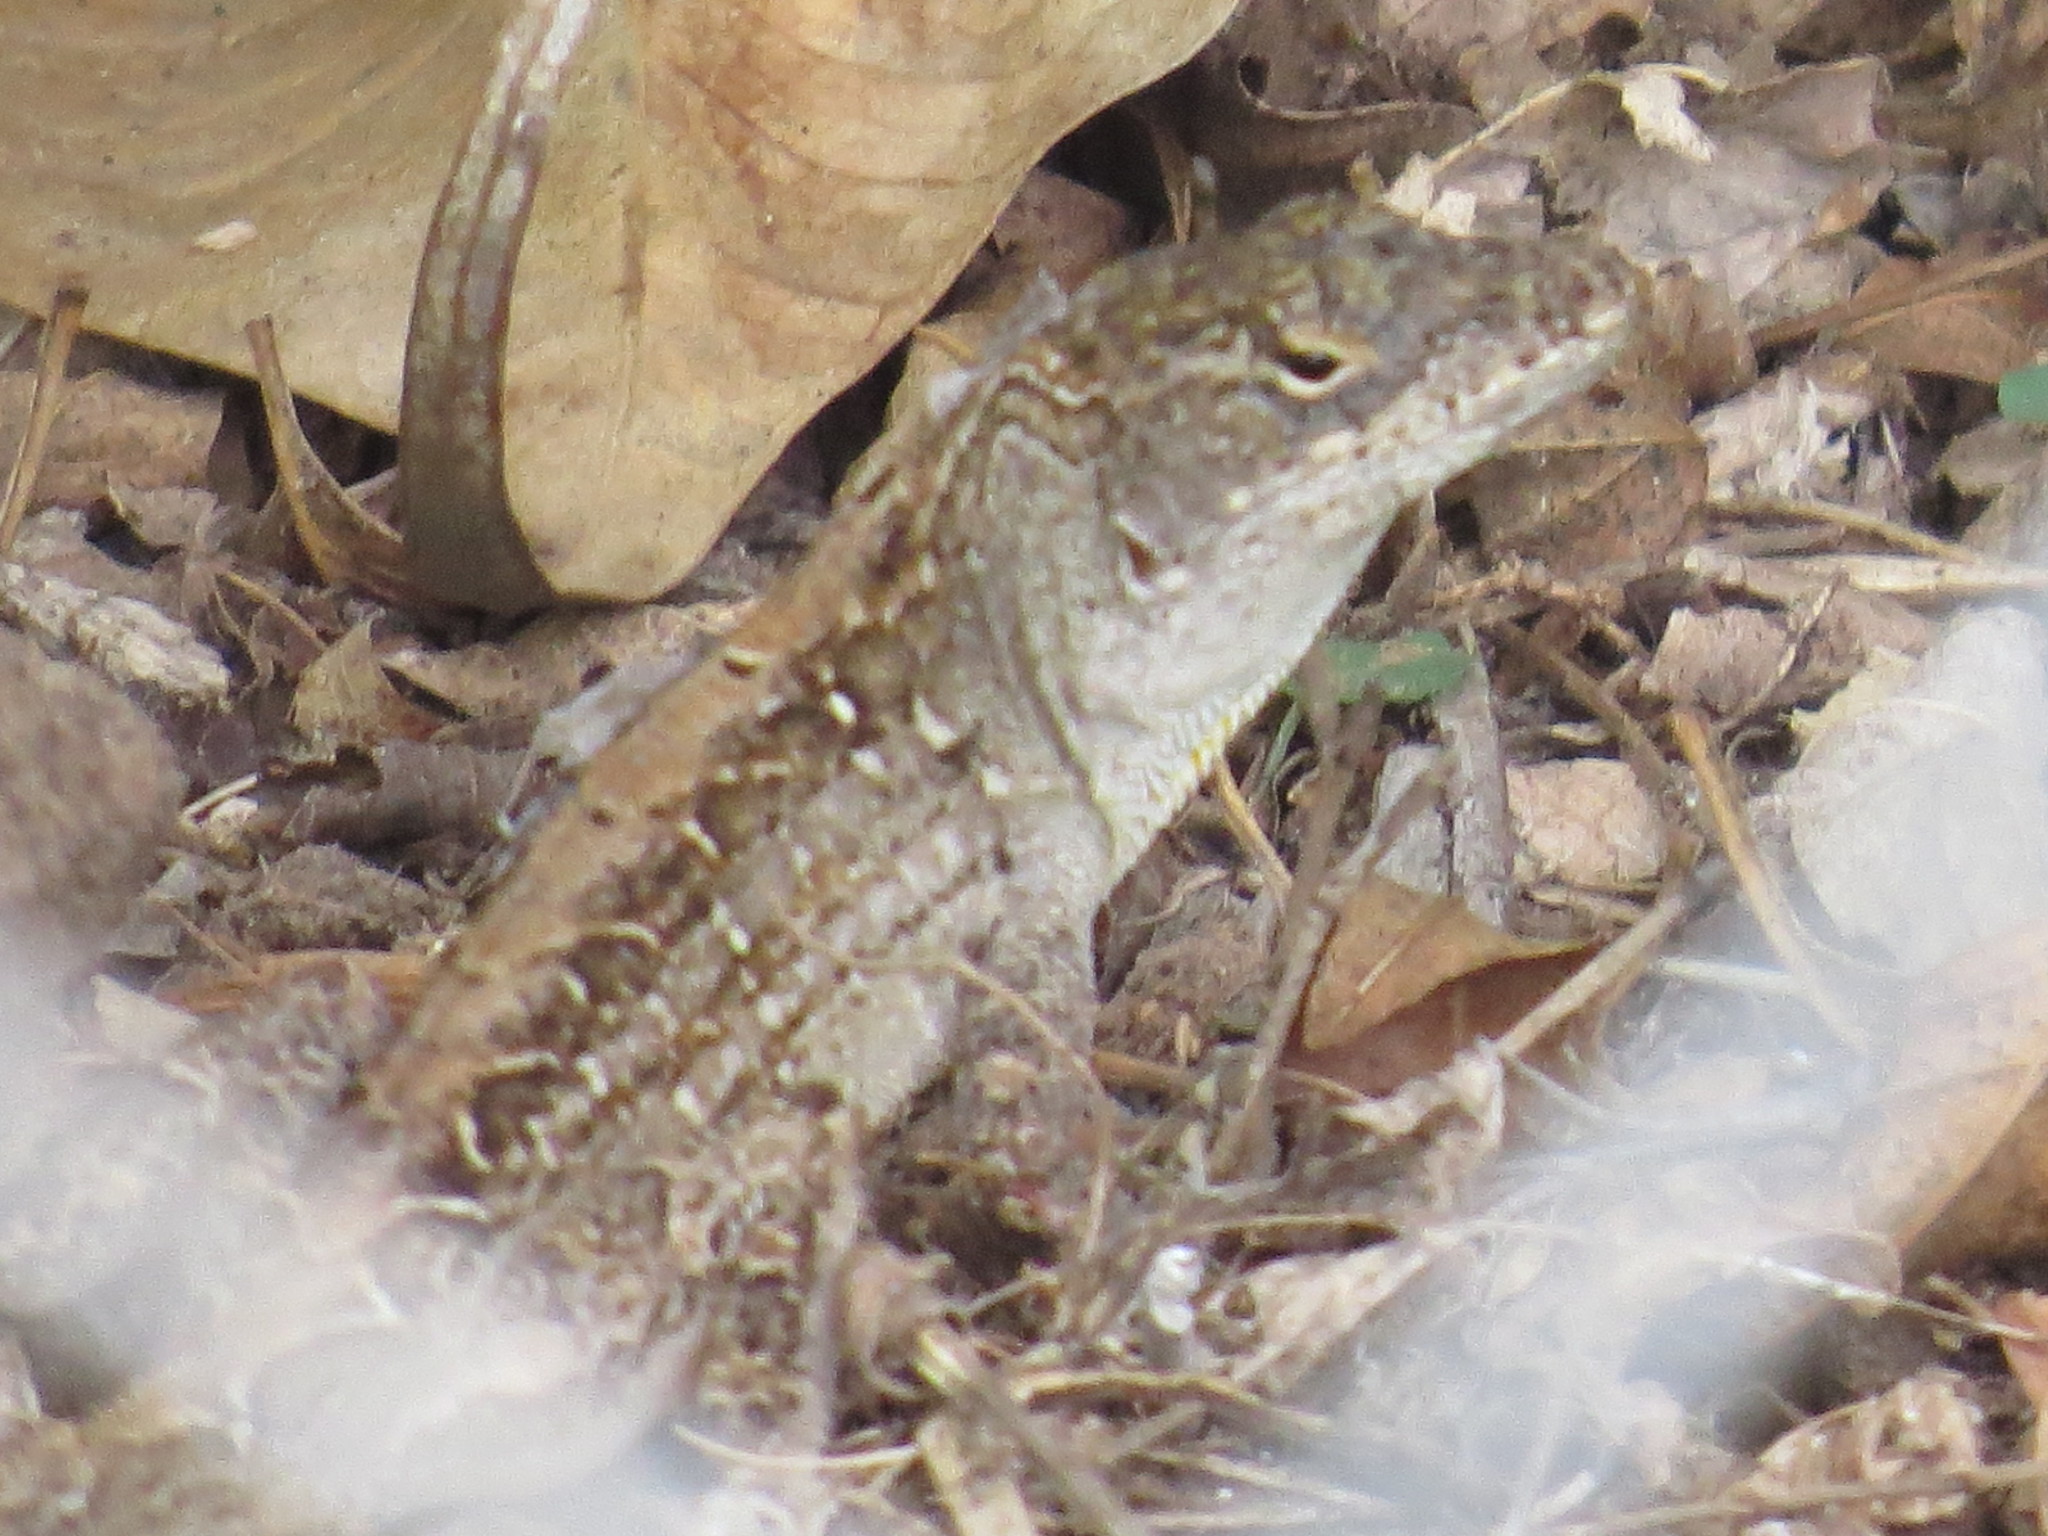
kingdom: Animalia
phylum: Chordata
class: Squamata
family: Dactyloidae
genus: Anolis
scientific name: Anolis sagrei
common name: Brown anole
